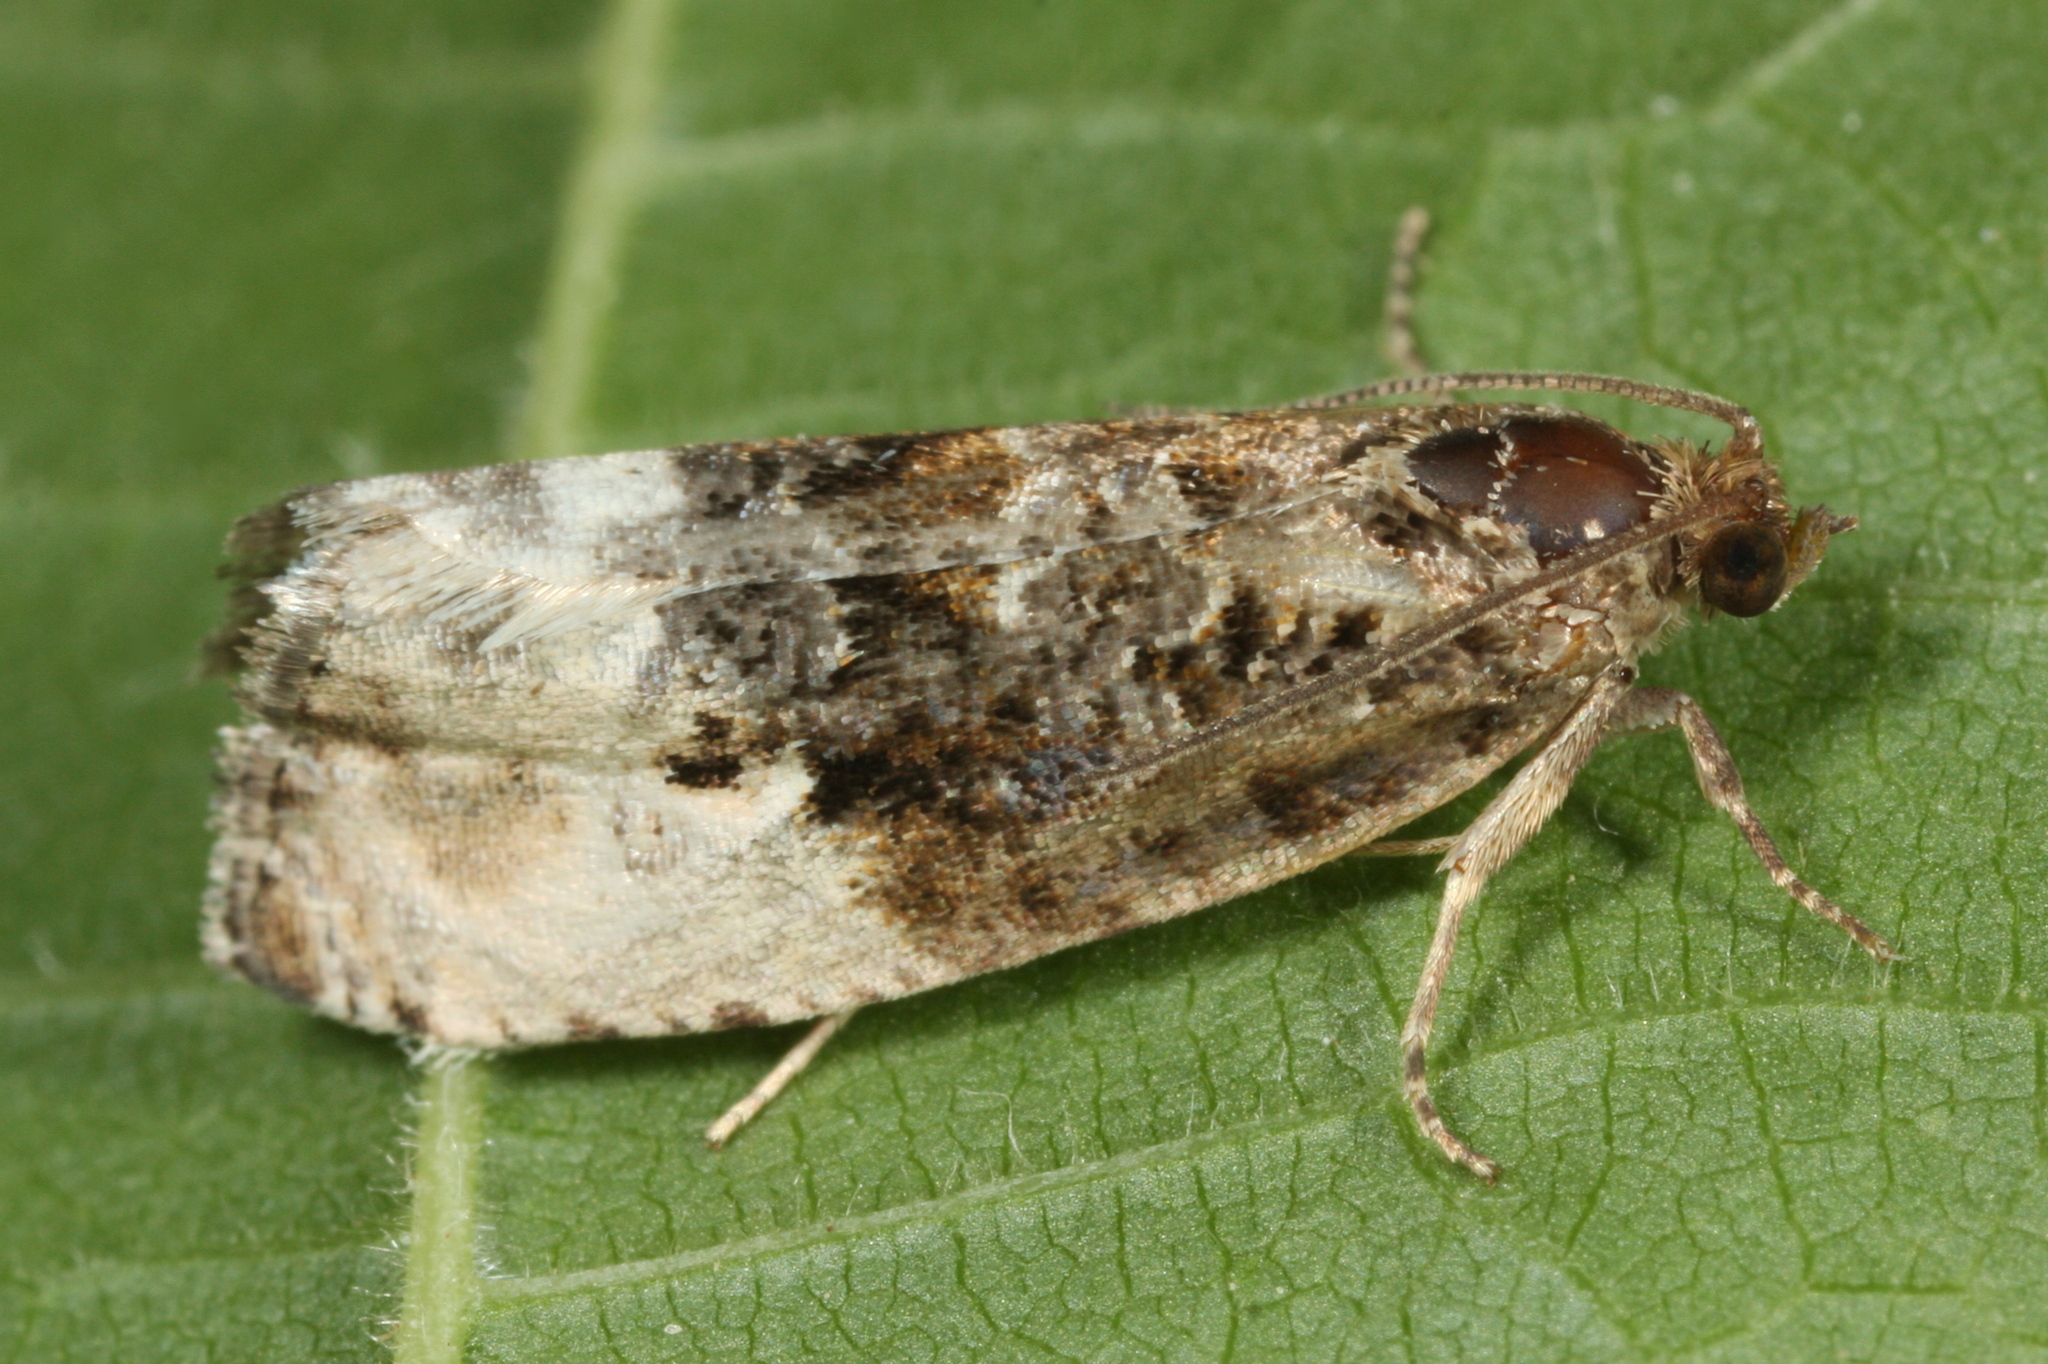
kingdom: Animalia
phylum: Arthropoda
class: Insecta
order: Lepidoptera
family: Tortricidae
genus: Hedya
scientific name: Hedya nubiferana
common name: Marbled orchard tortrix
